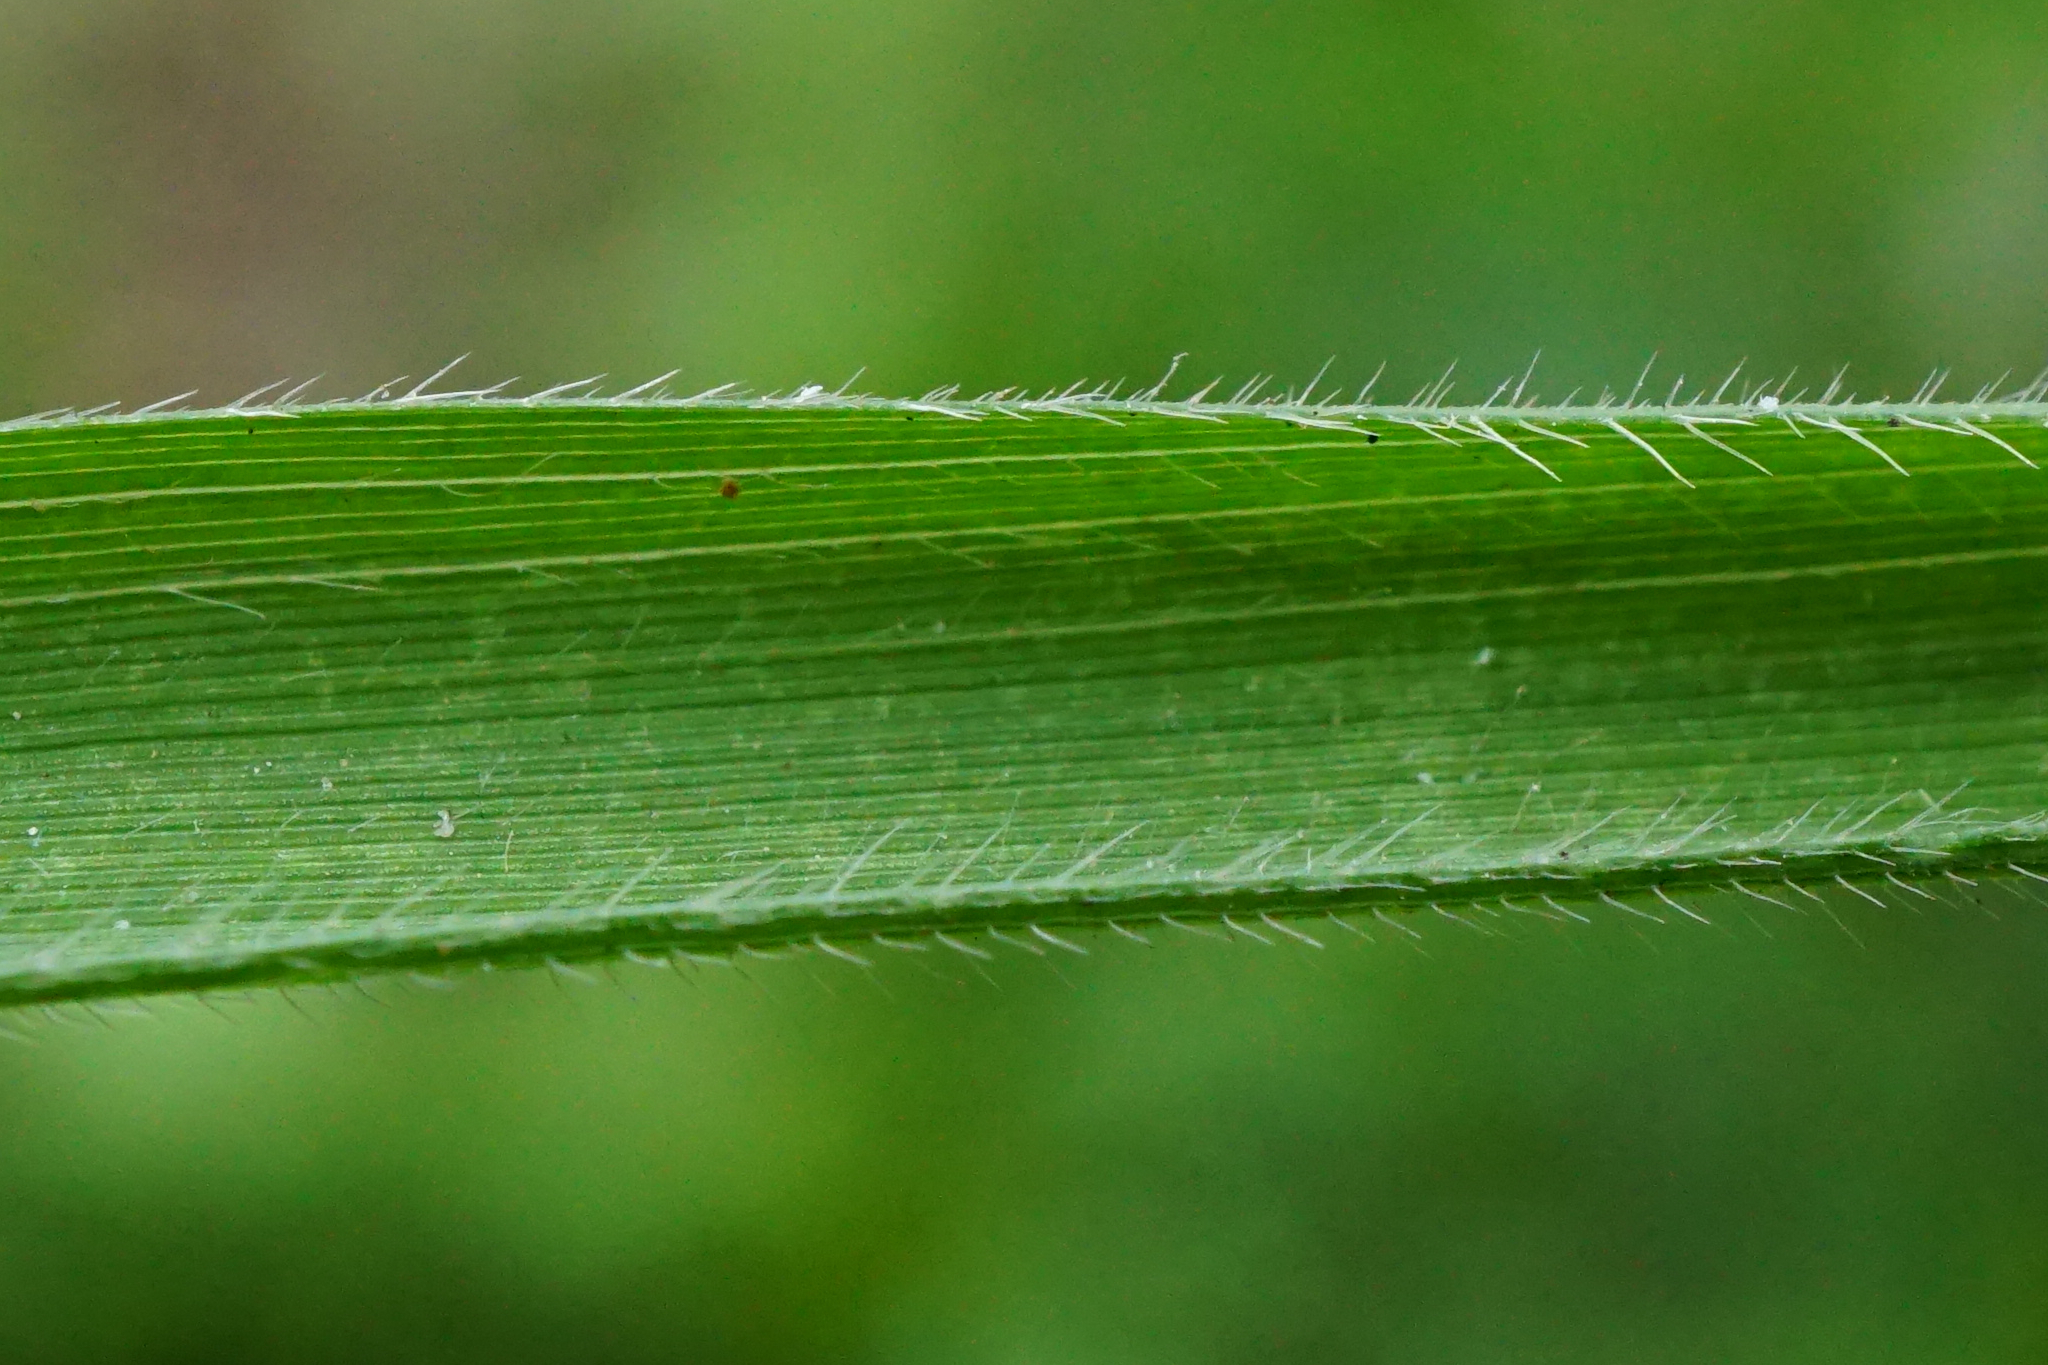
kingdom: Plantae
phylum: Tracheophyta
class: Liliopsida
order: Poales
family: Poaceae
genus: Brachypodium
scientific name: Brachypodium pinnatum
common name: Tor grass
